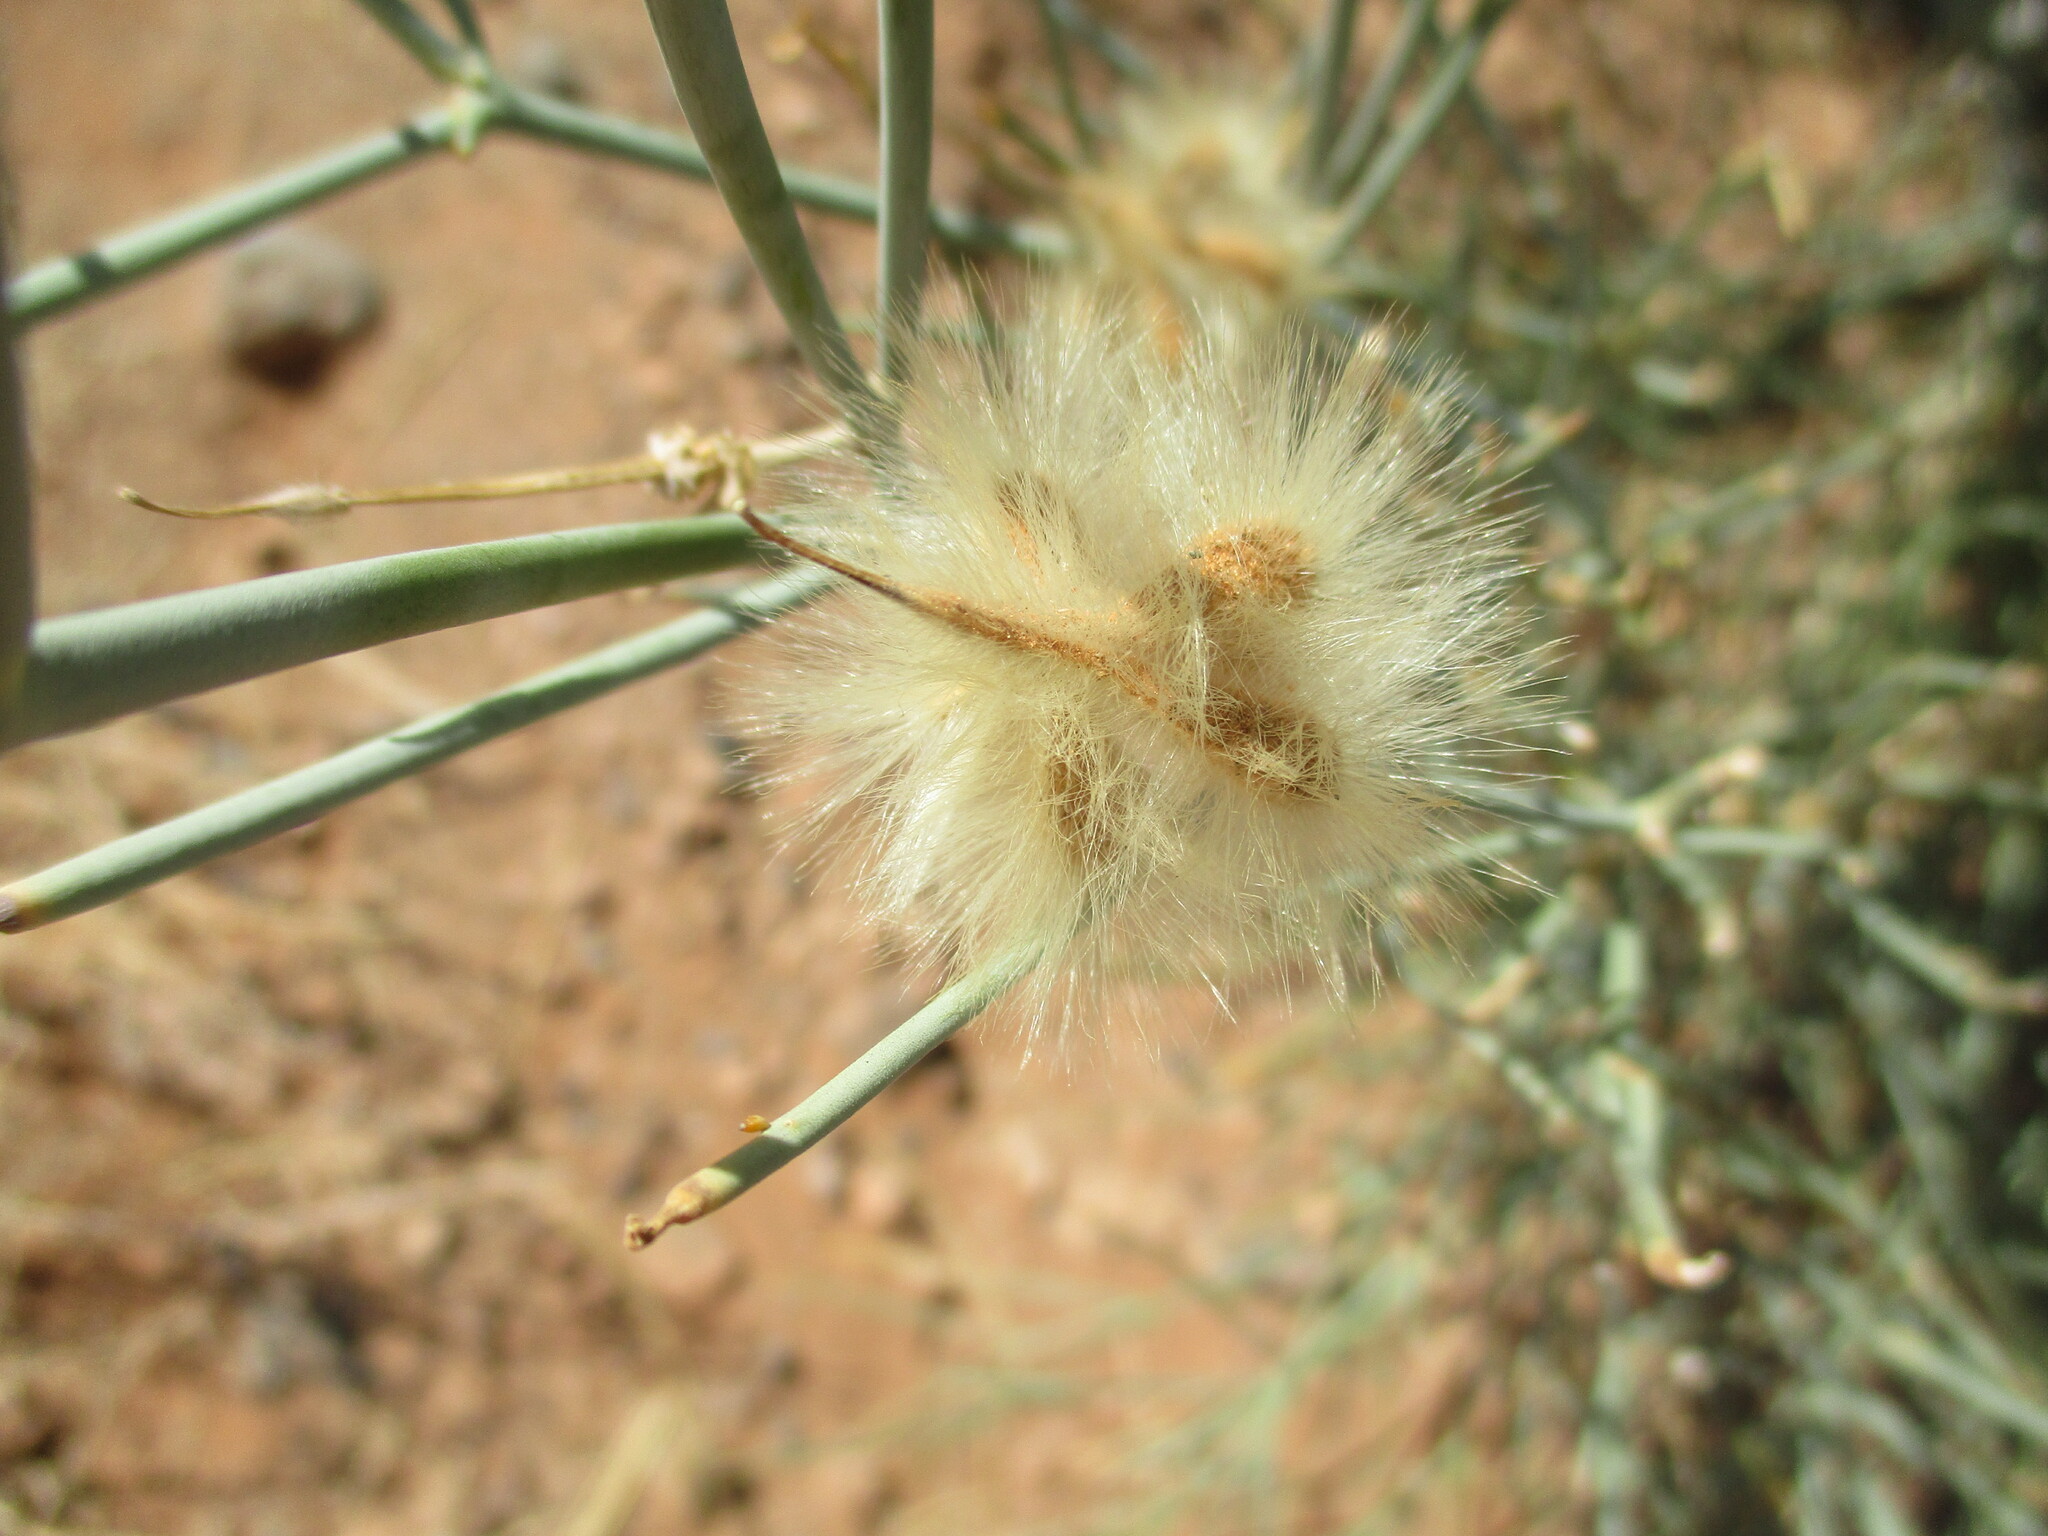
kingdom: Plantae
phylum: Tracheophyta
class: Magnoliopsida
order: Zygophyllales
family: Zygophyllaceae
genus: Sisyndite
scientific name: Sisyndite spartea
